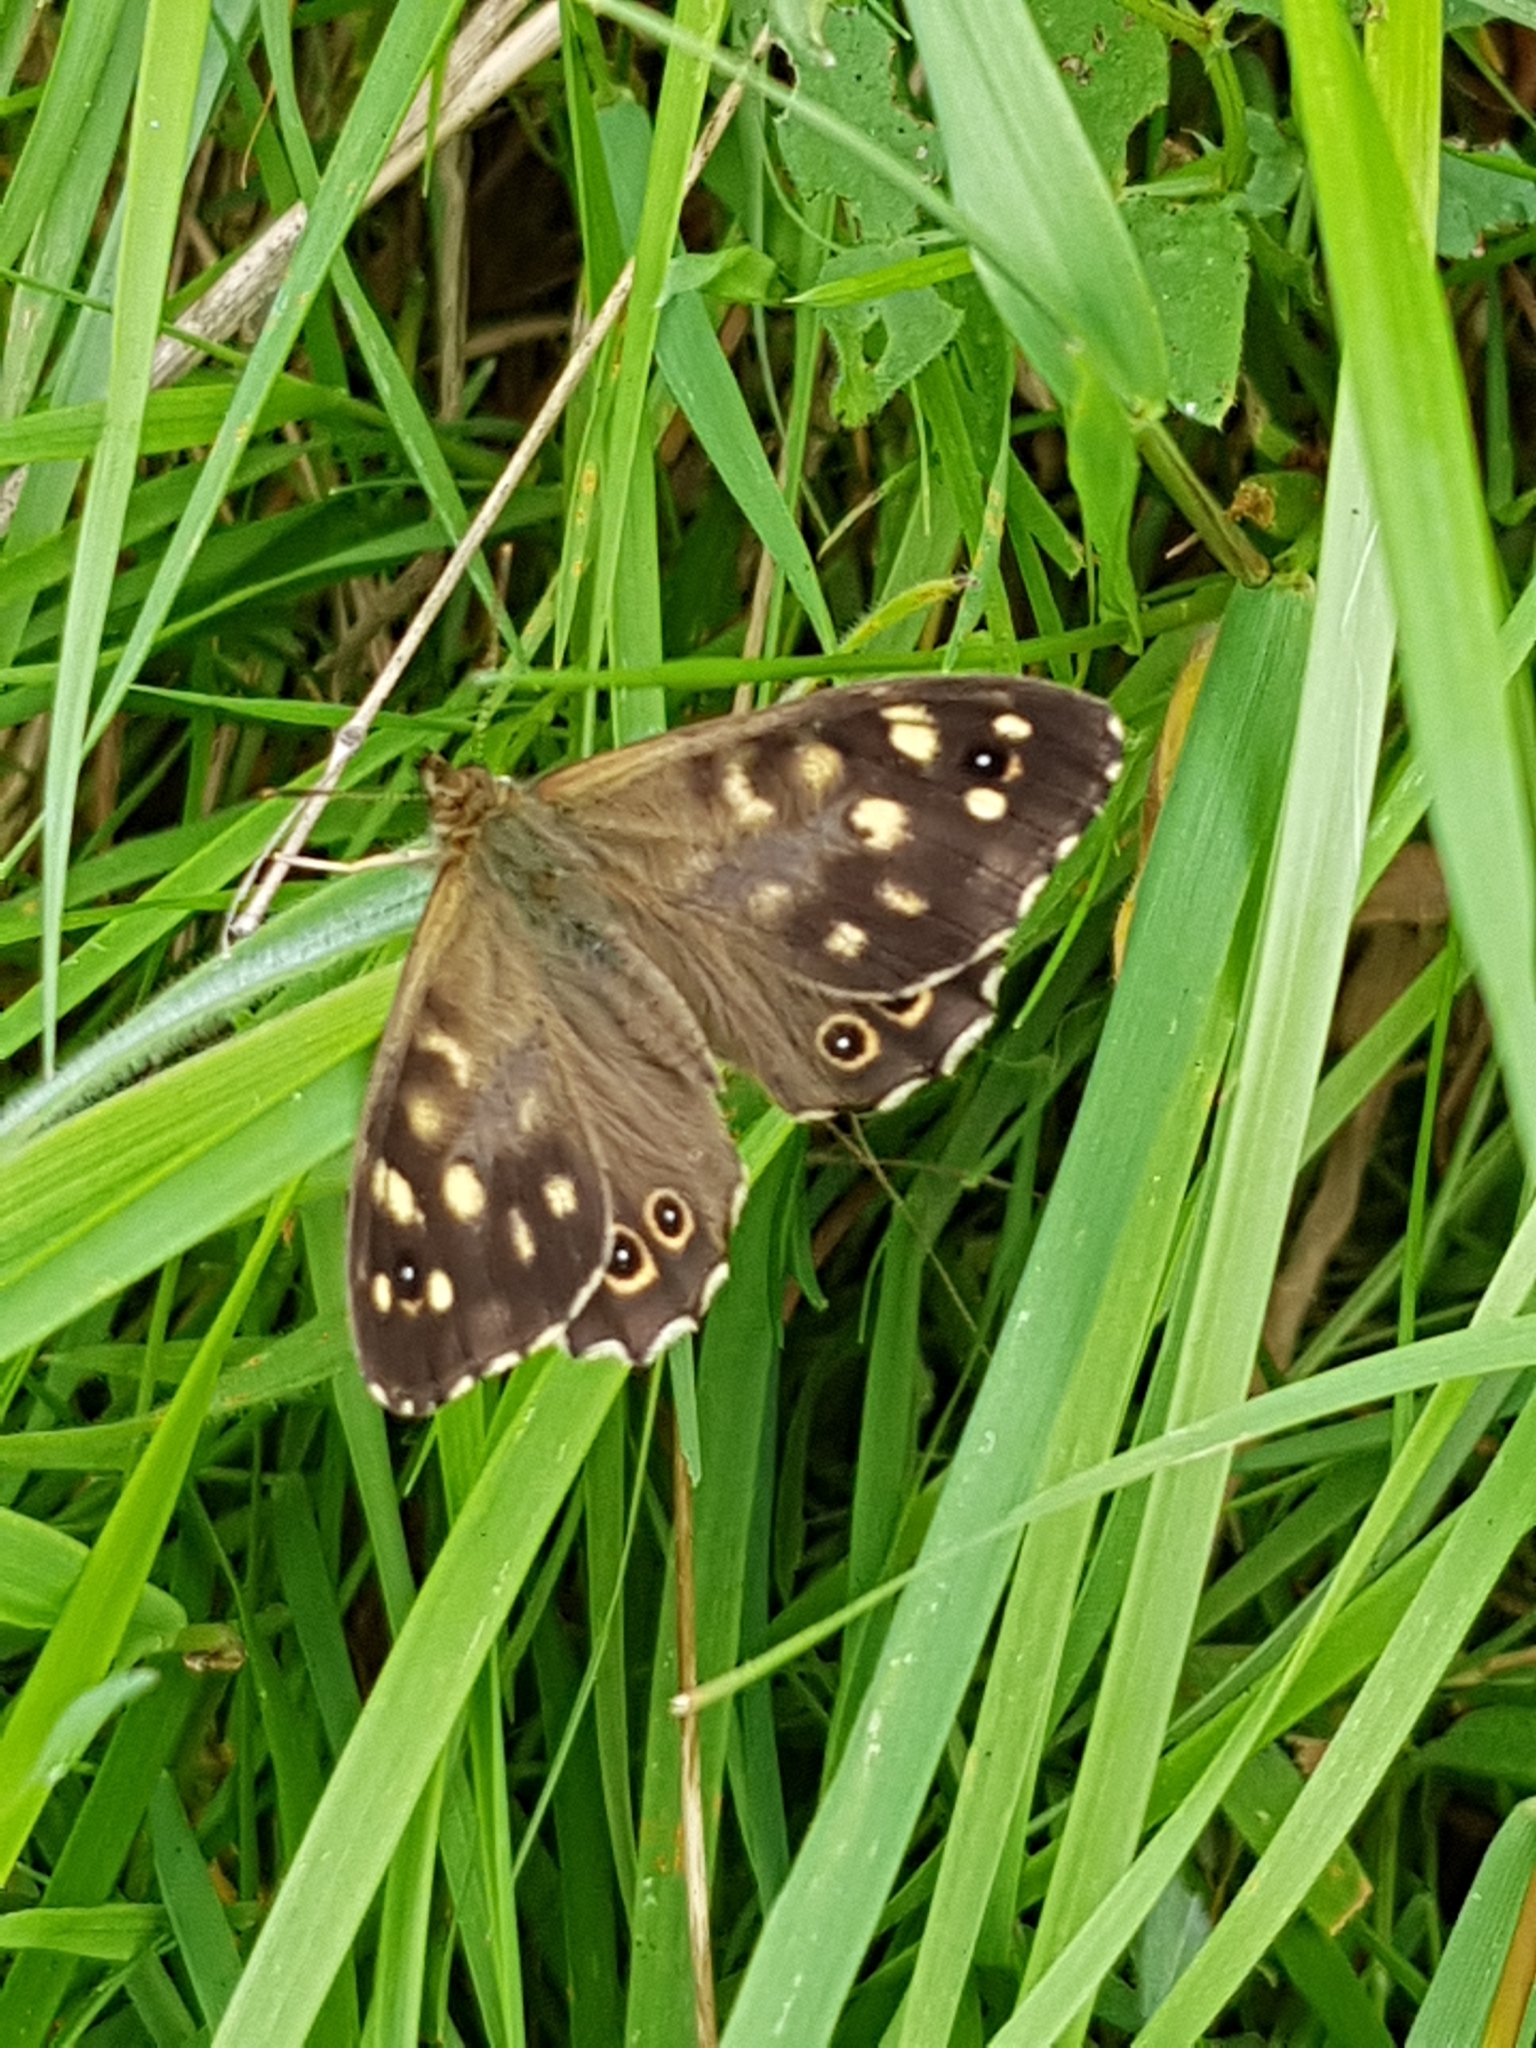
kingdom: Animalia
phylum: Arthropoda
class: Insecta
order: Lepidoptera
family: Nymphalidae
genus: Pararge
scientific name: Pararge aegeria
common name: Speckled wood
